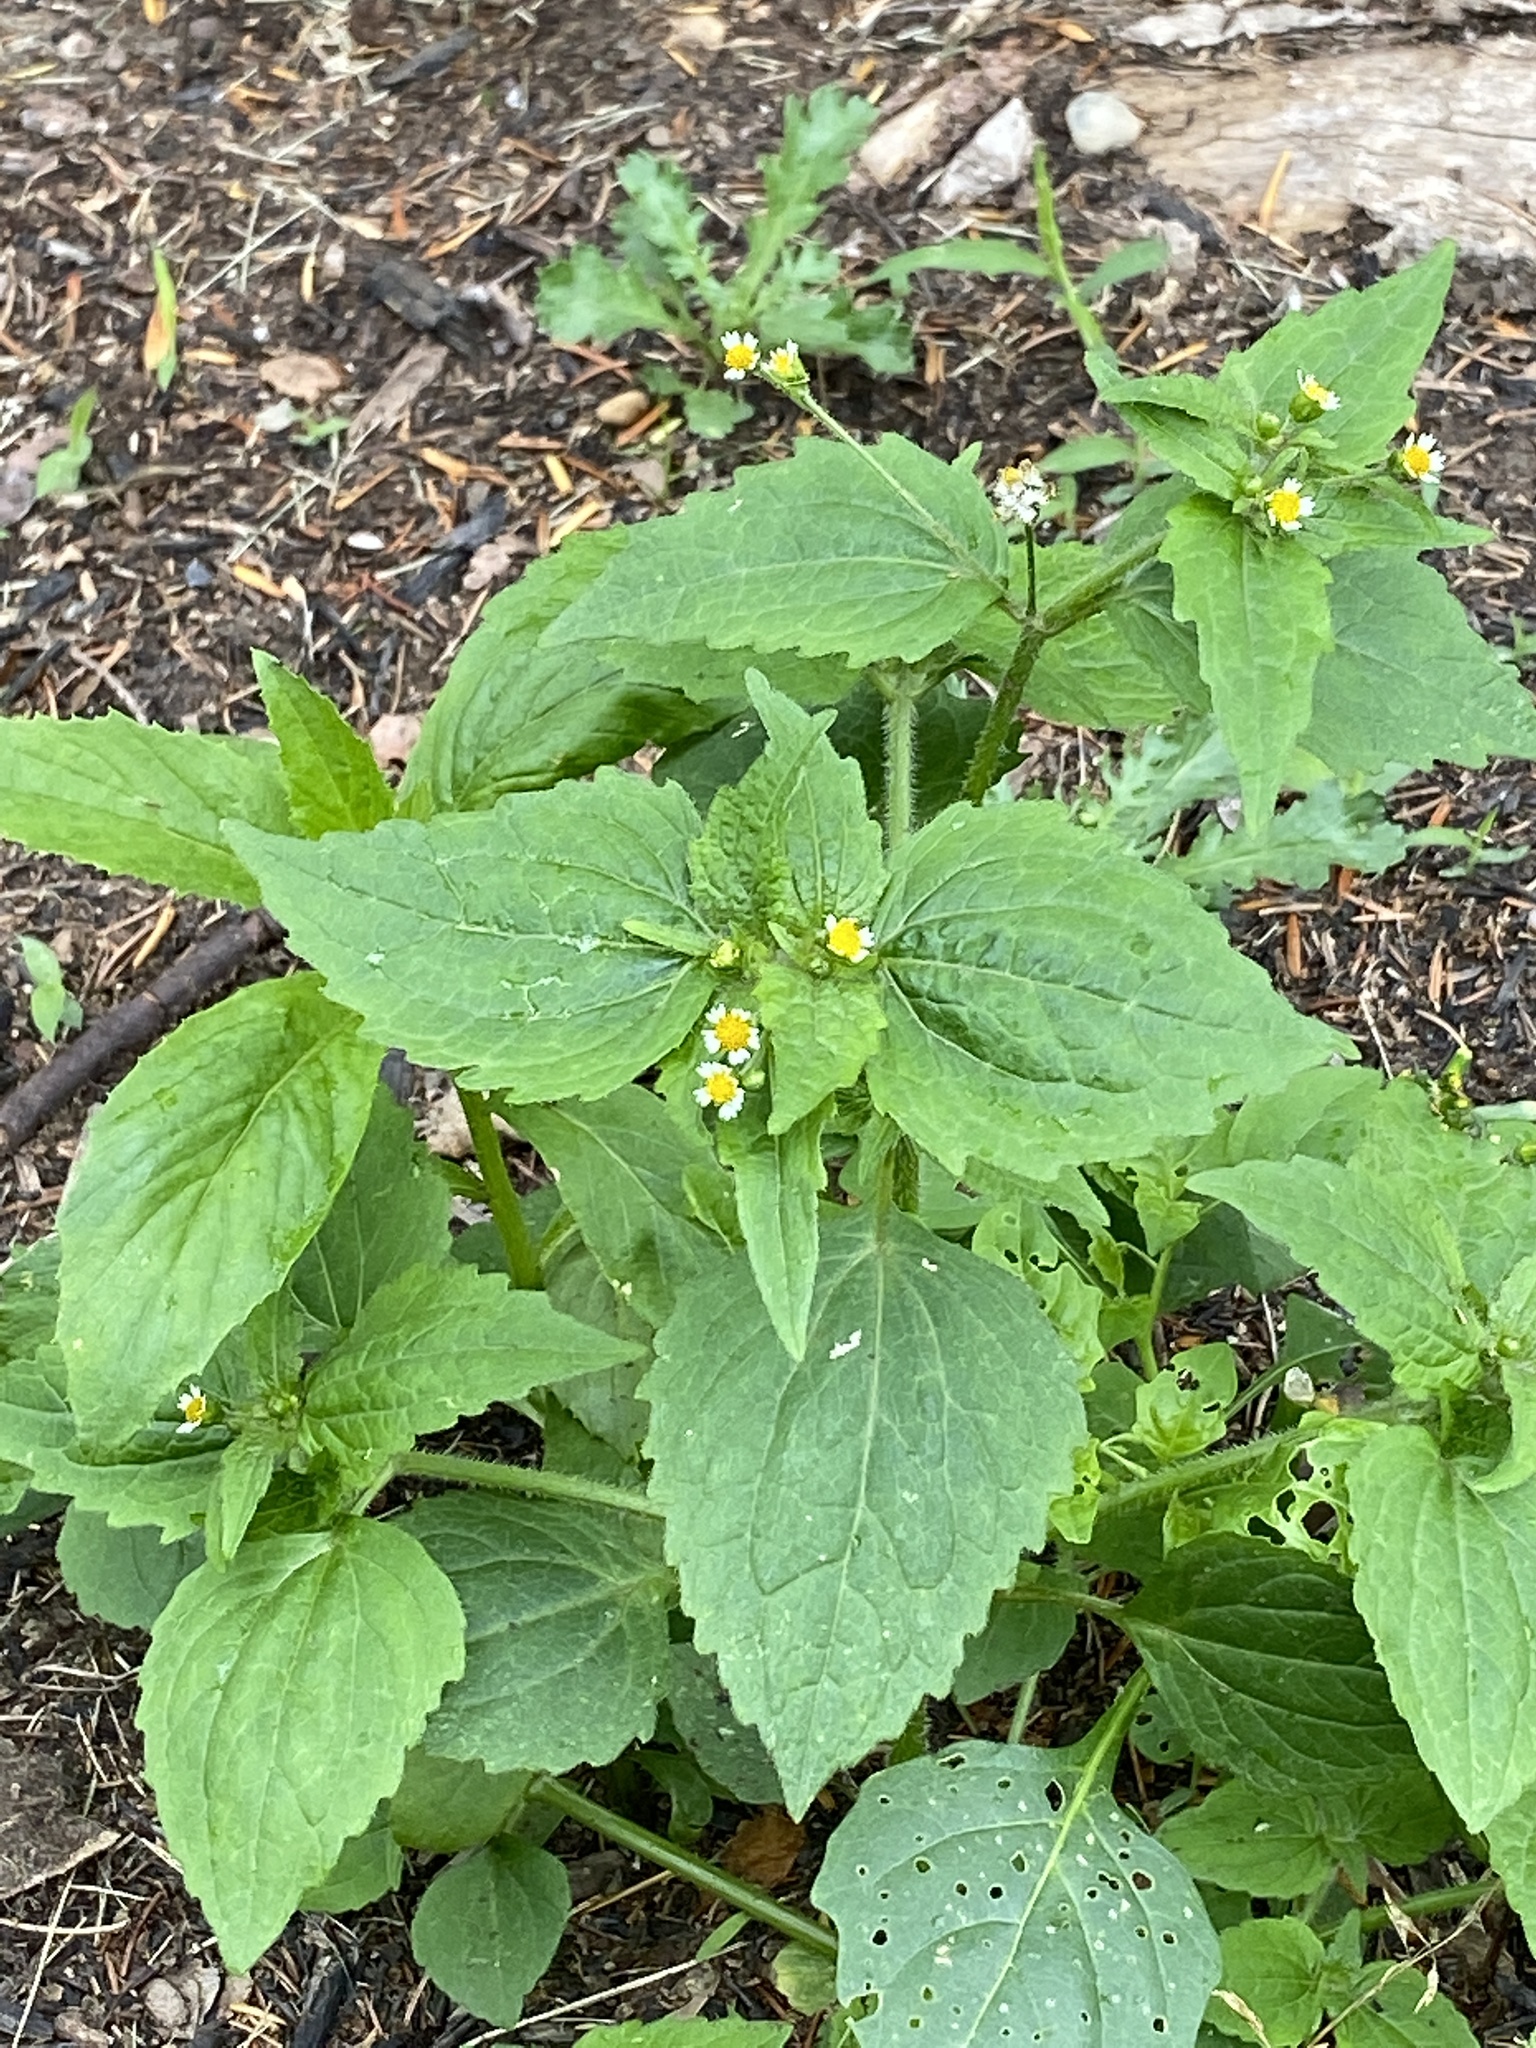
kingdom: Plantae
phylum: Tracheophyta
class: Magnoliopsida
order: Asterales
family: Asteraceae
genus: Galinsoga
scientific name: Galinsoga quadriradiata
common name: Shaggy soldier
